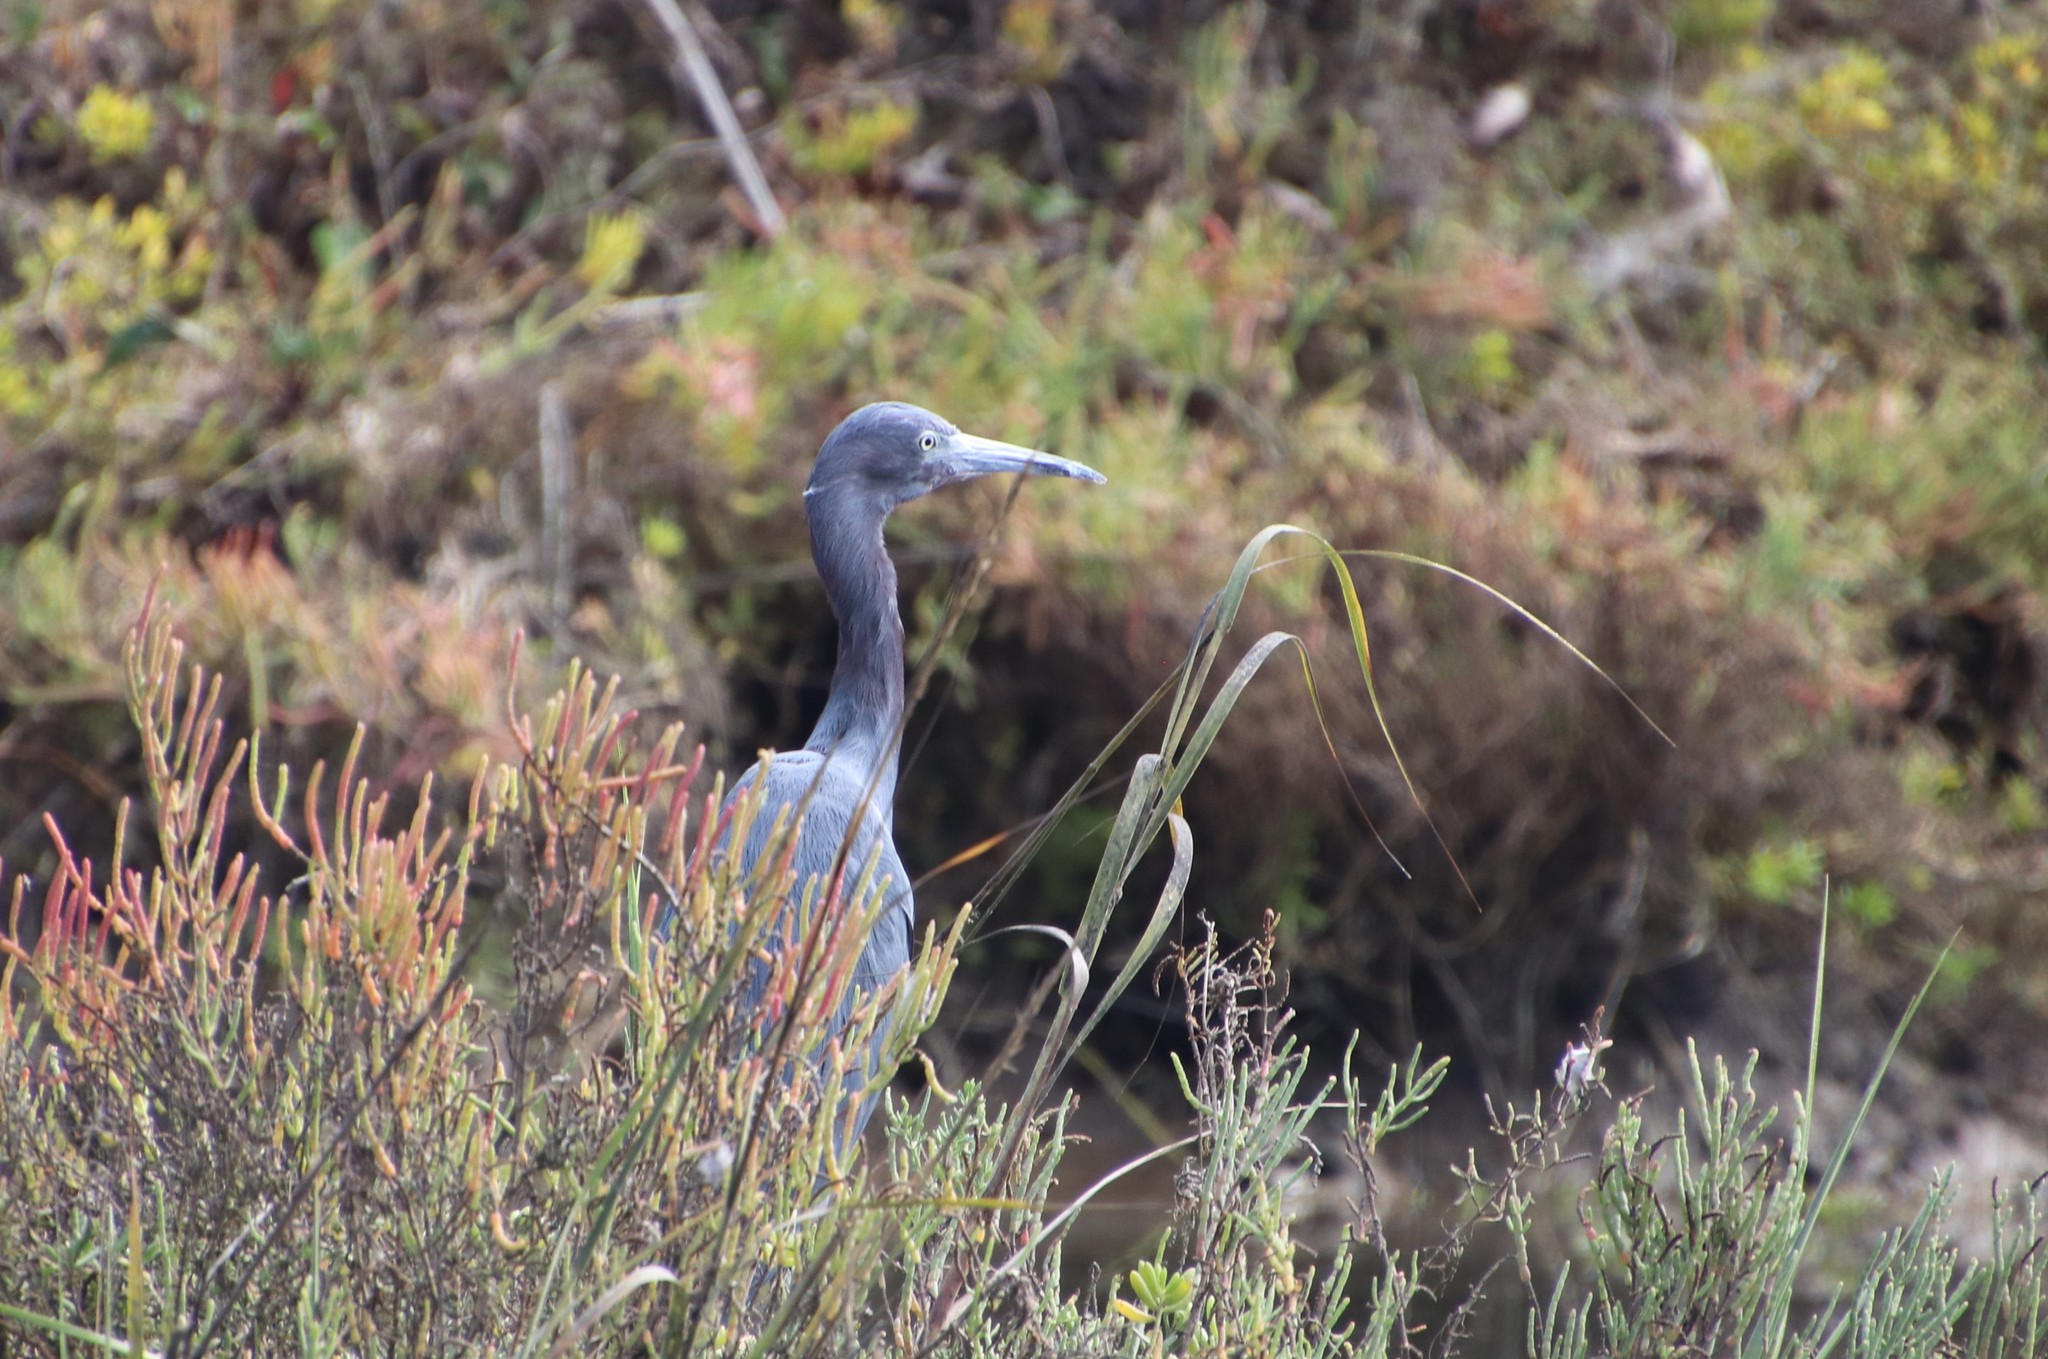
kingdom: Animalia
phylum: Chordata
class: Aves
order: Pelecaniformes
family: Ardeidae
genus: Egretta
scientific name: Egretta caerulea
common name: Little blue heron
